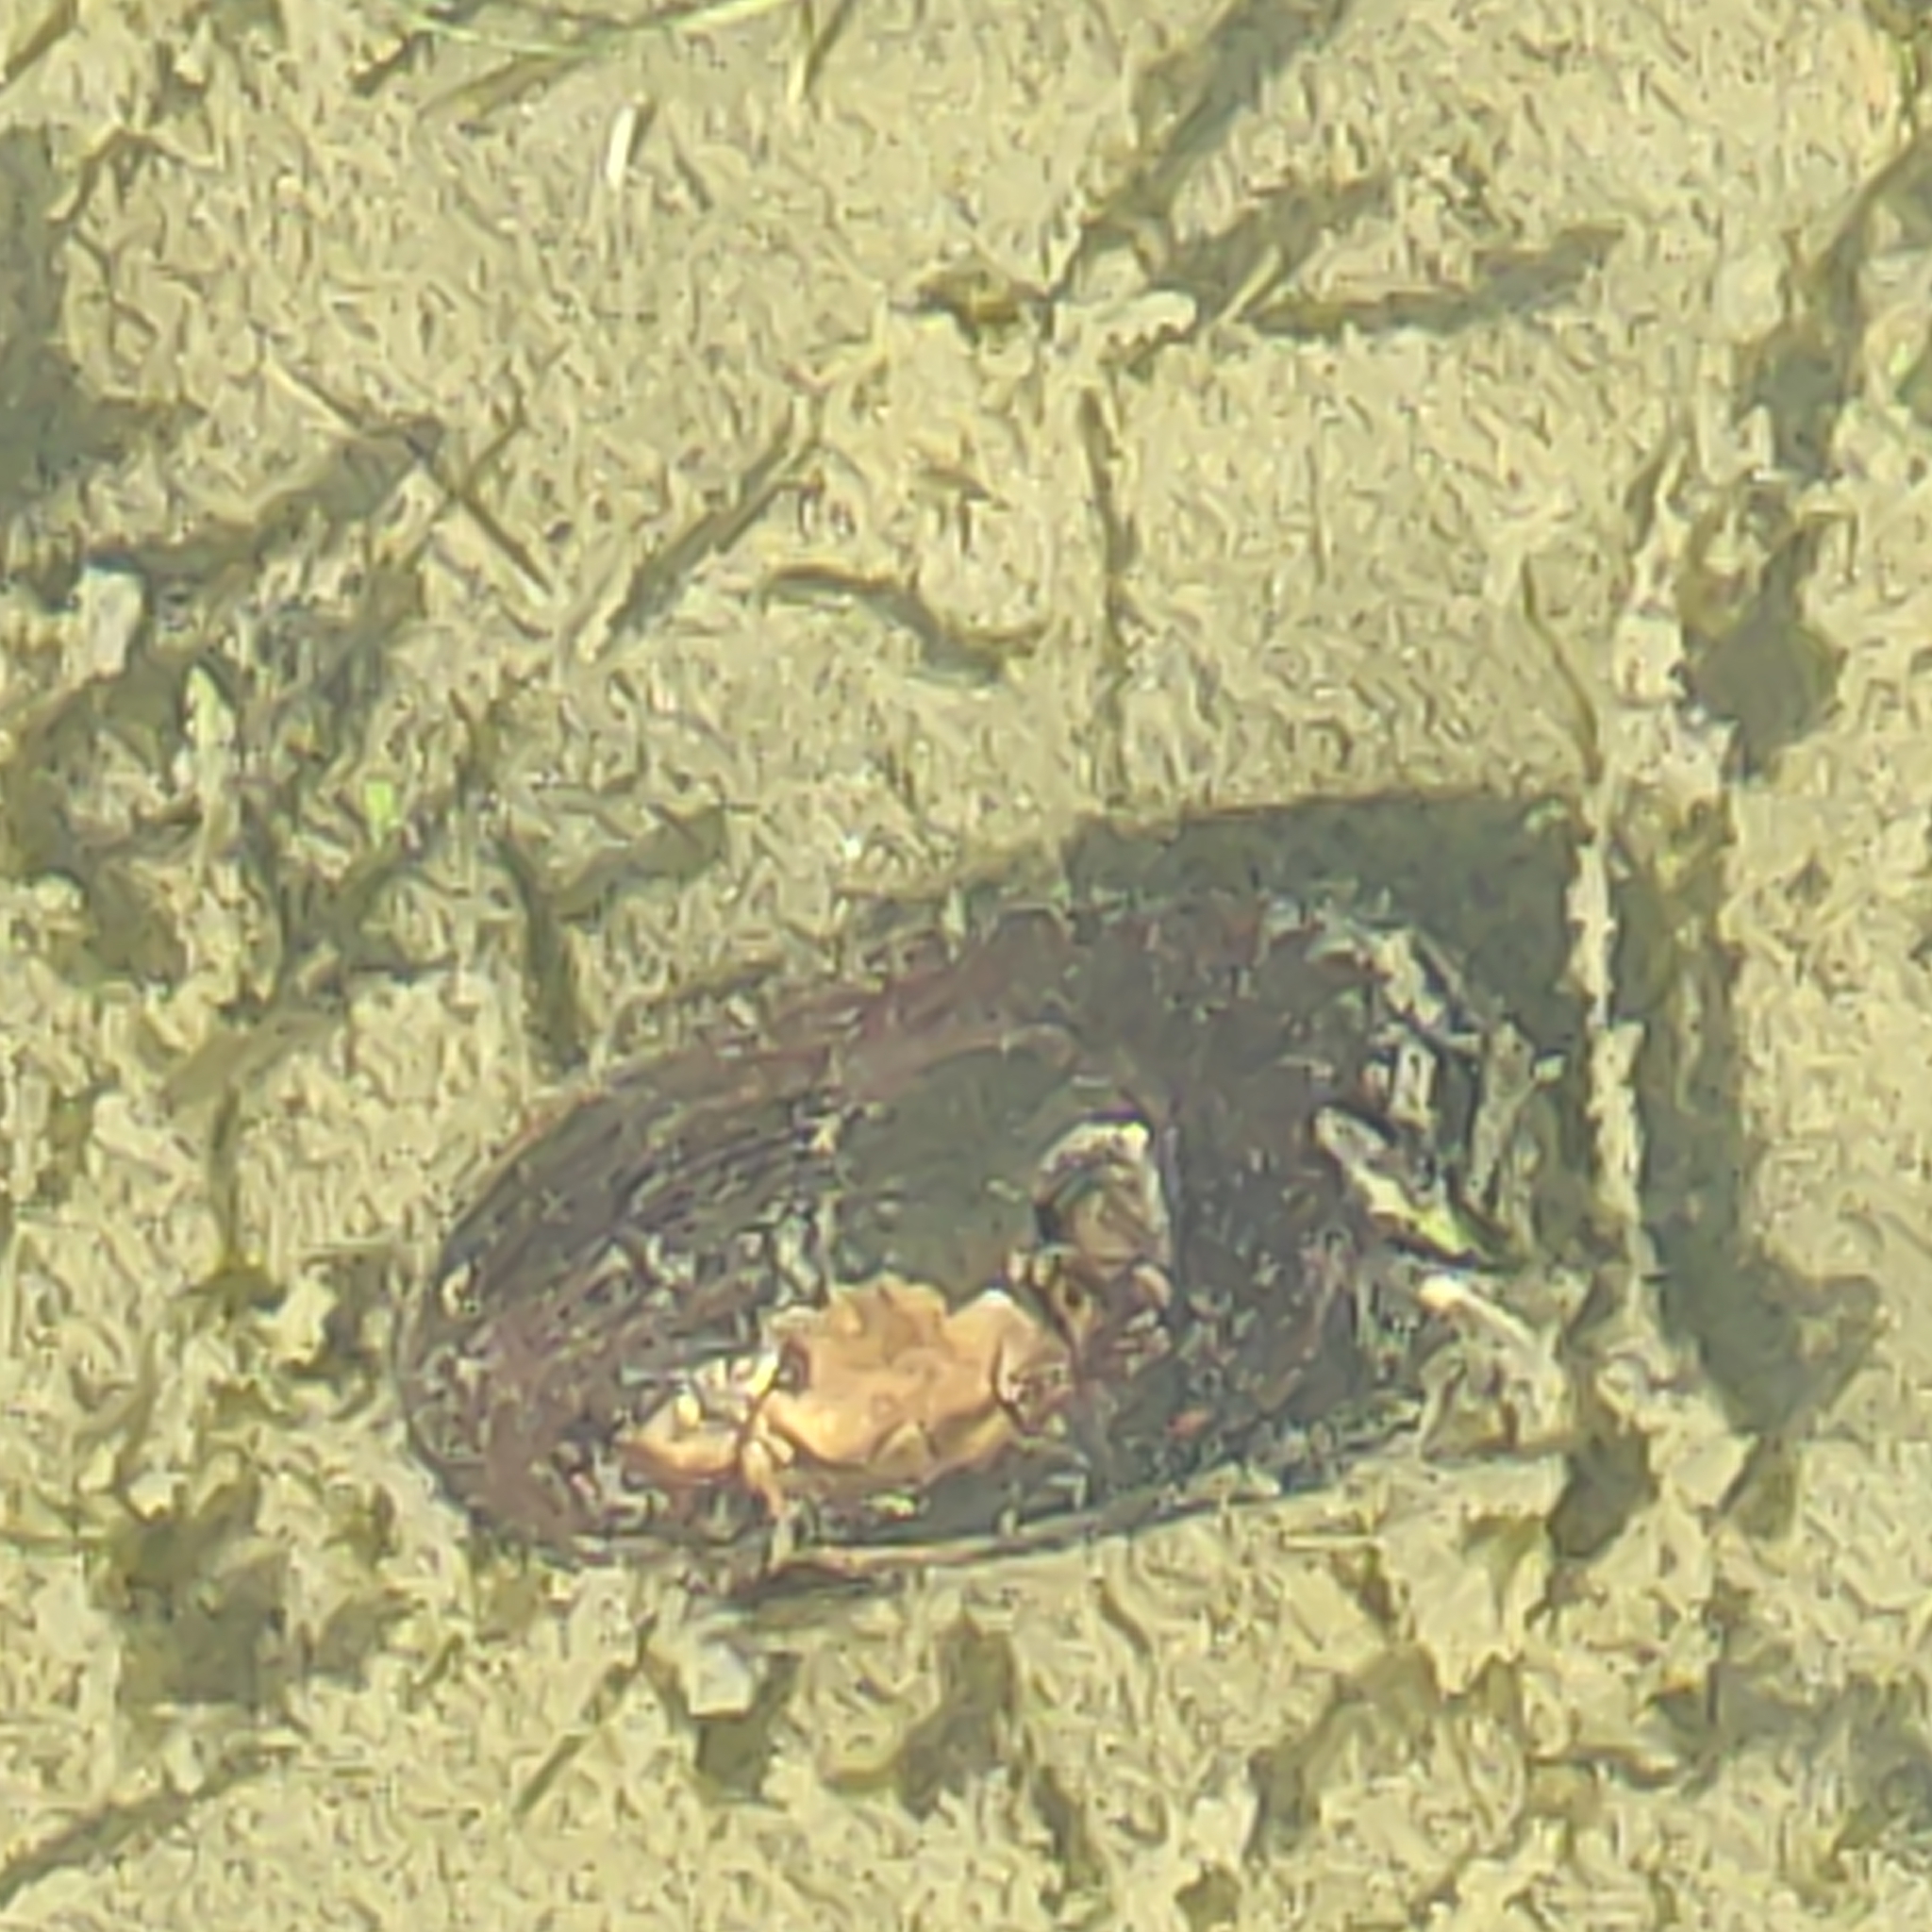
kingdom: Animalia
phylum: Mollusca
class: Bivalvia
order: Unionida
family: Hyriidae
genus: Echyridella
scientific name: Echyridella menziesii
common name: New zealand freshwater mussel
